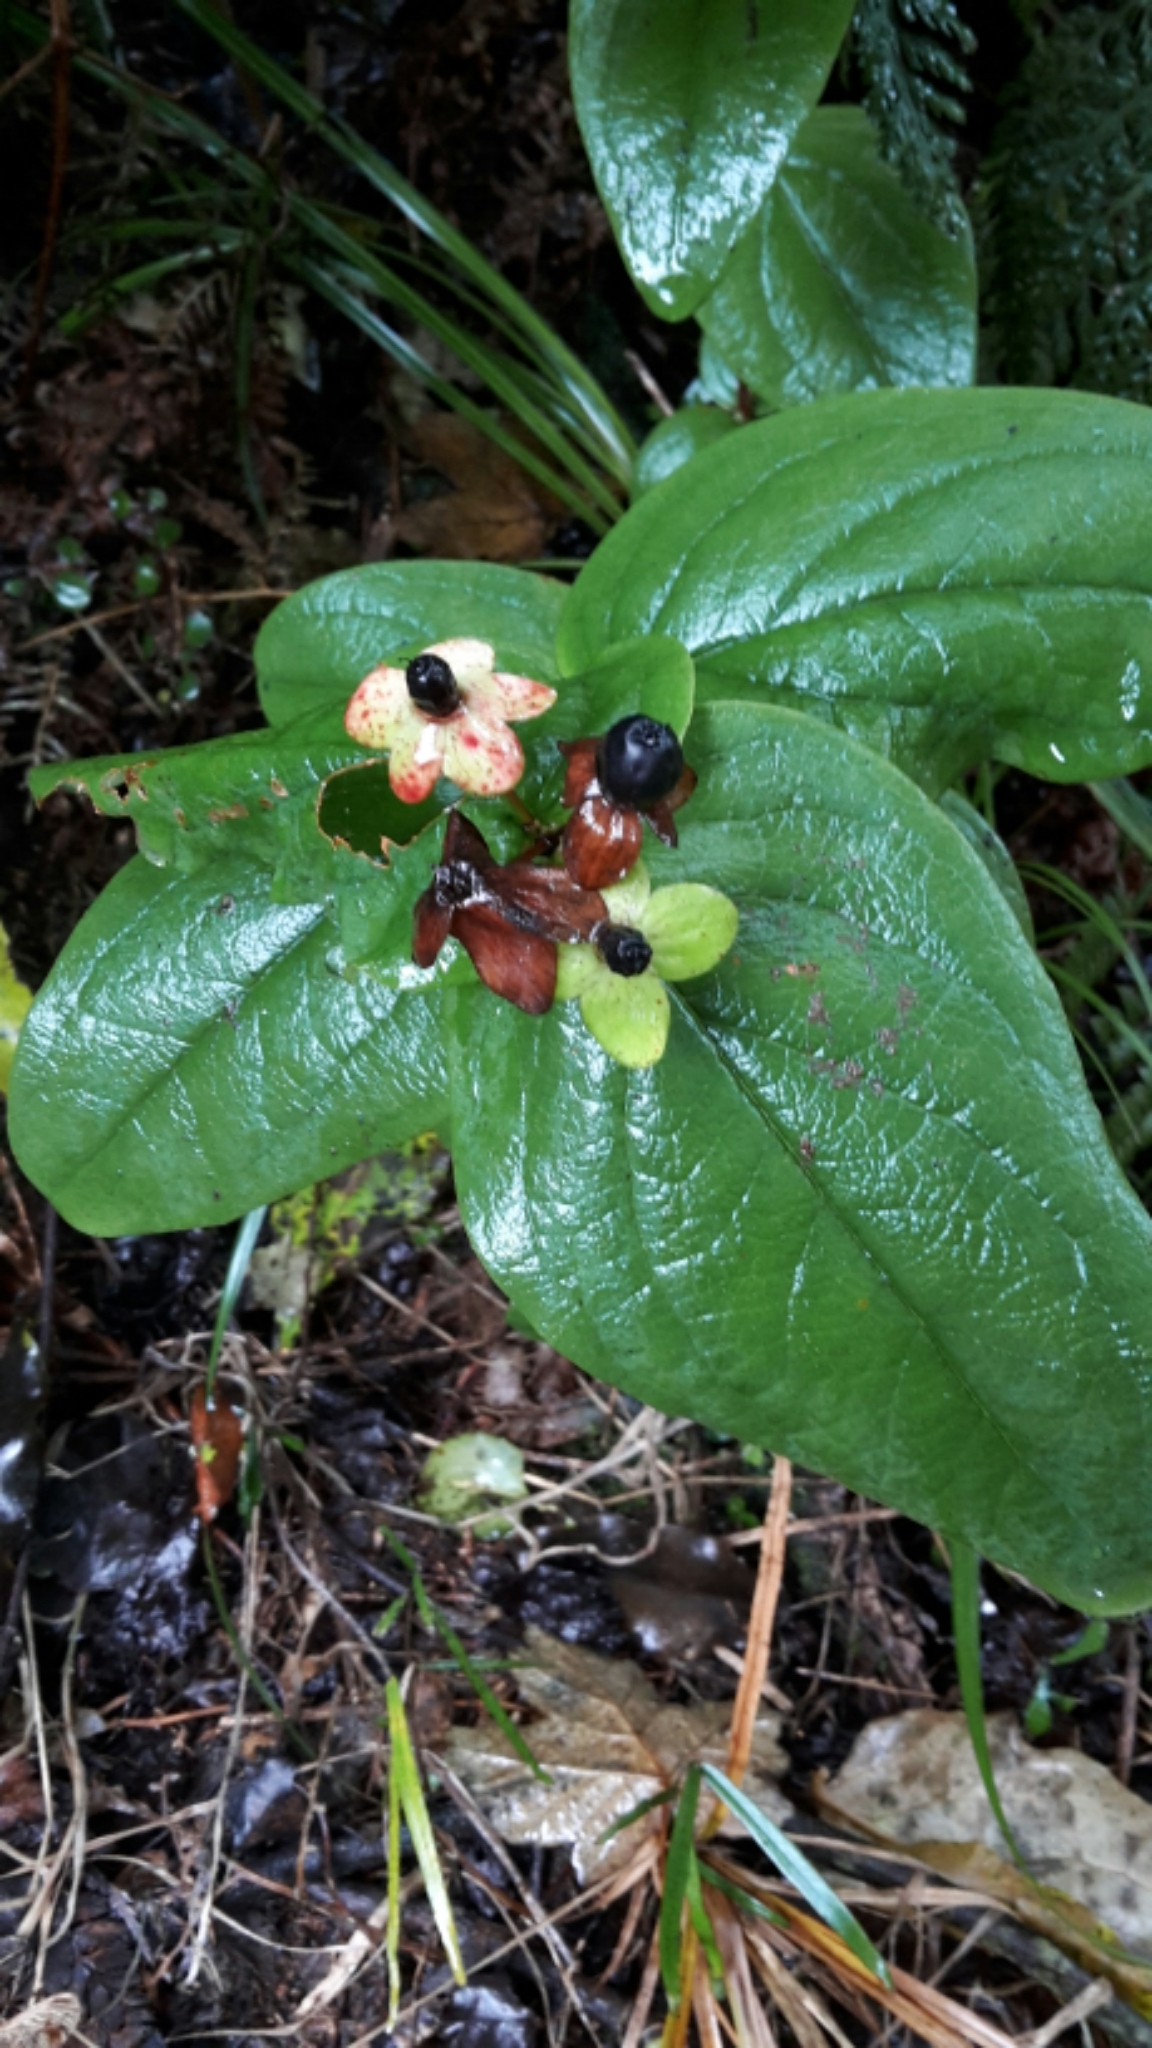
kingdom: Plantae
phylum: Tracheophyta
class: Magnoliopsida
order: Malpighiales
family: Hypericaceae
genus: Hypericum
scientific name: Hypericum androsaemum
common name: Sweet-amber
